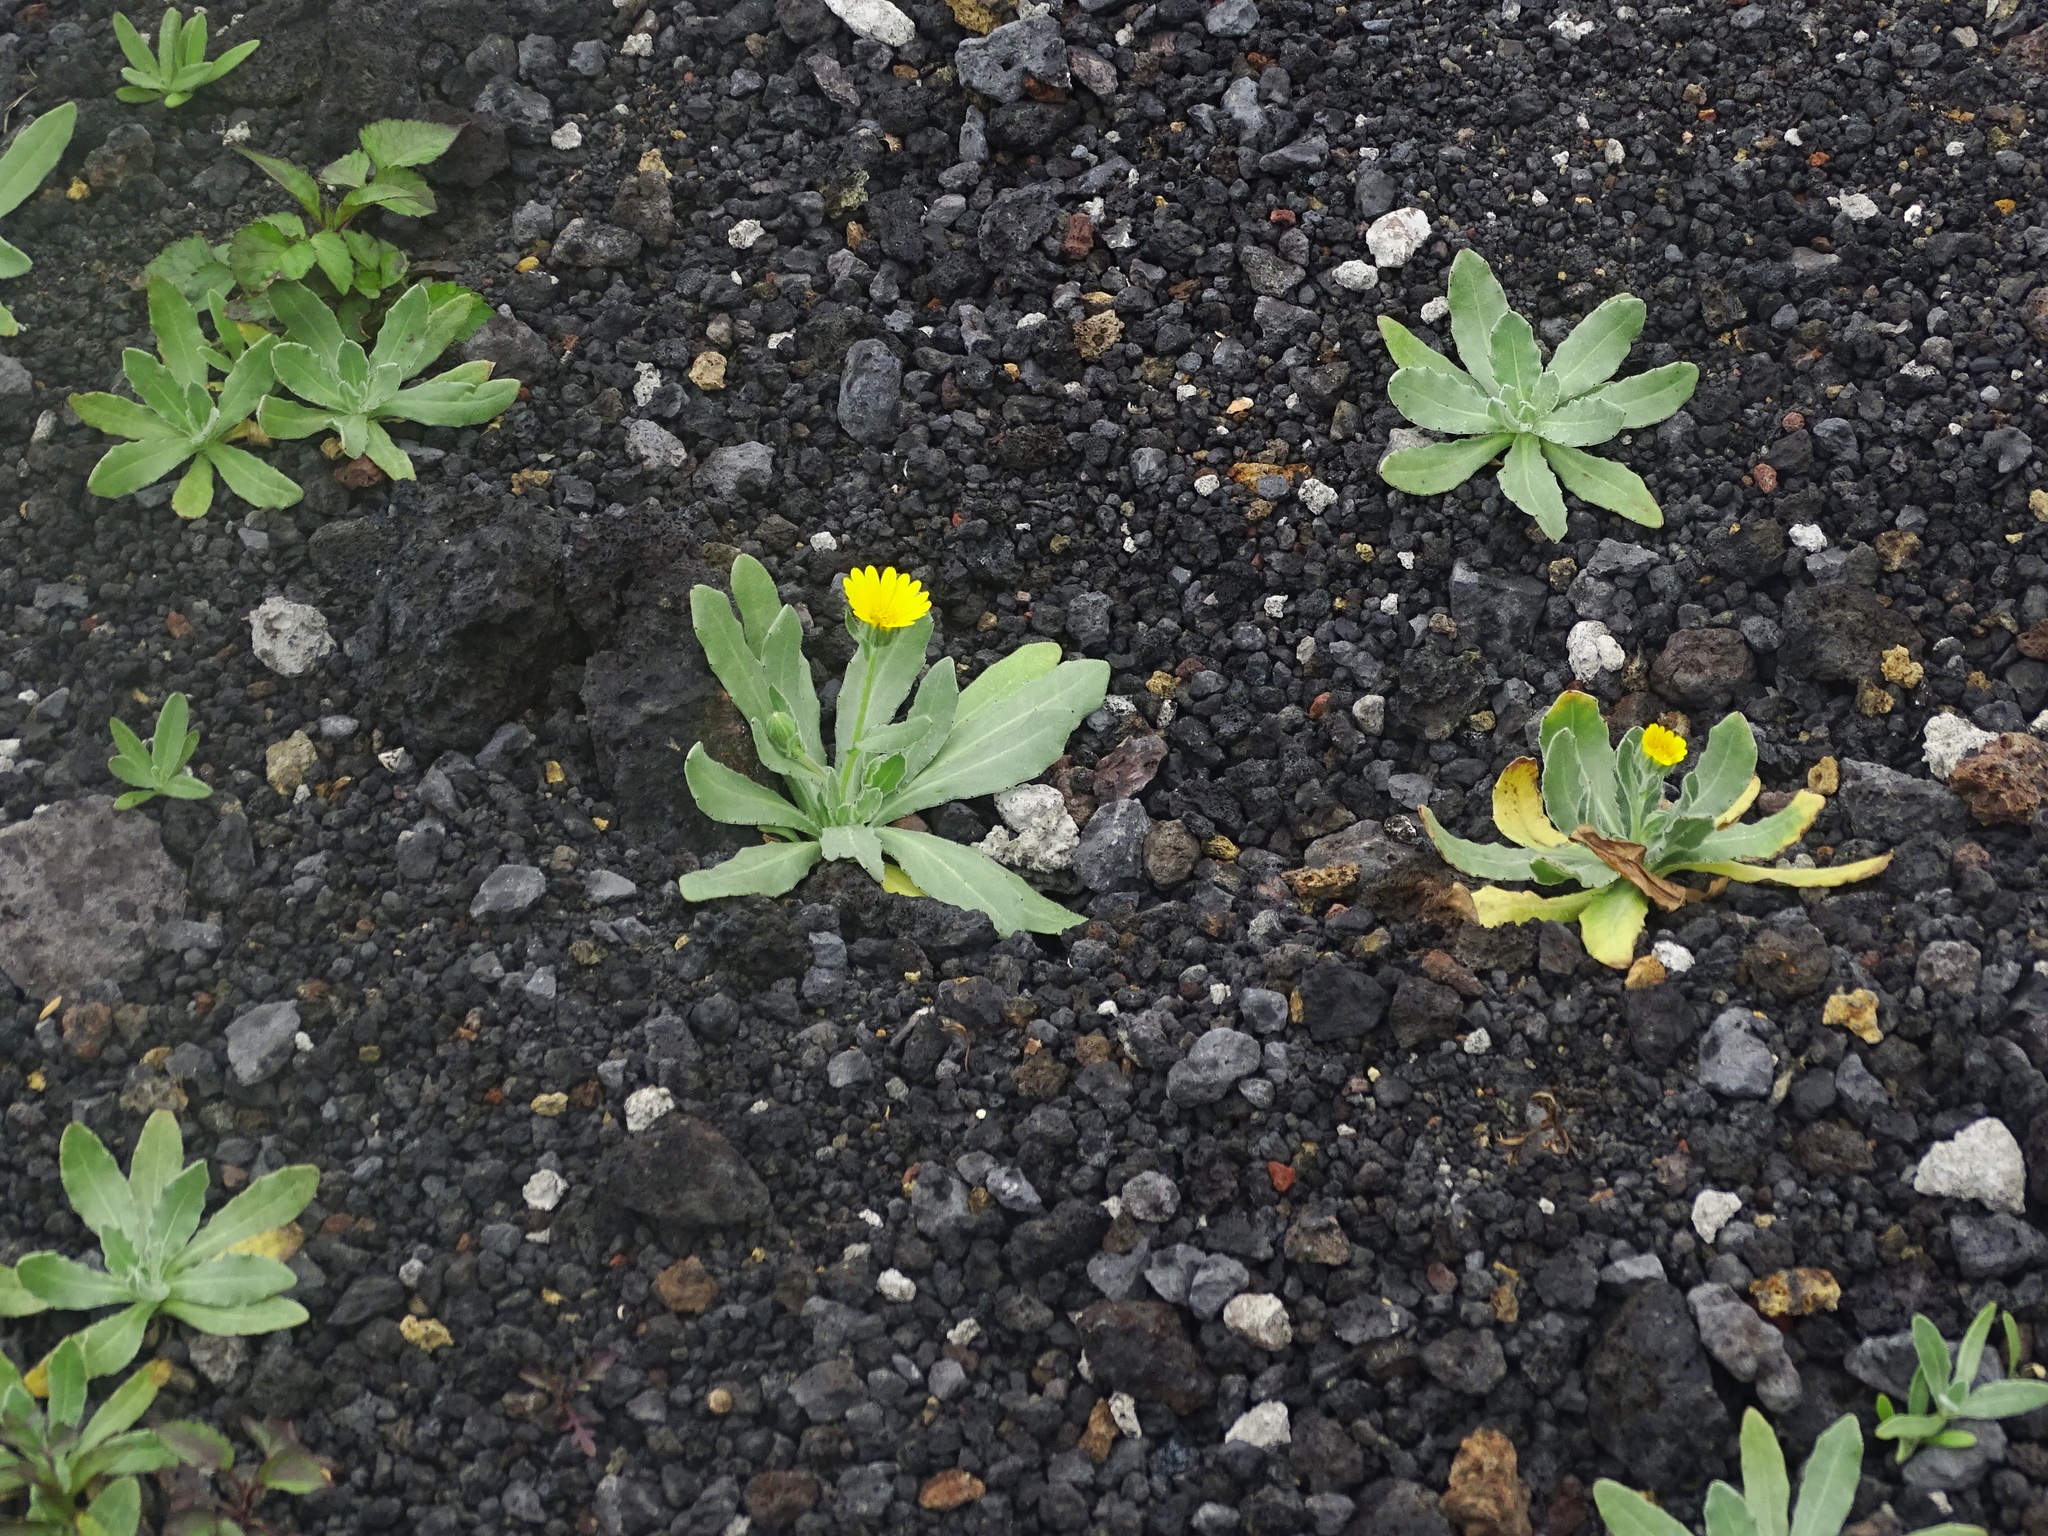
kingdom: Plantae
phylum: Tracheophyta
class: Magnoliopsida
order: Asterales
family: Asteraceae
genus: Calendula
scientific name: Calendula arvensis
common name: Field marigold
